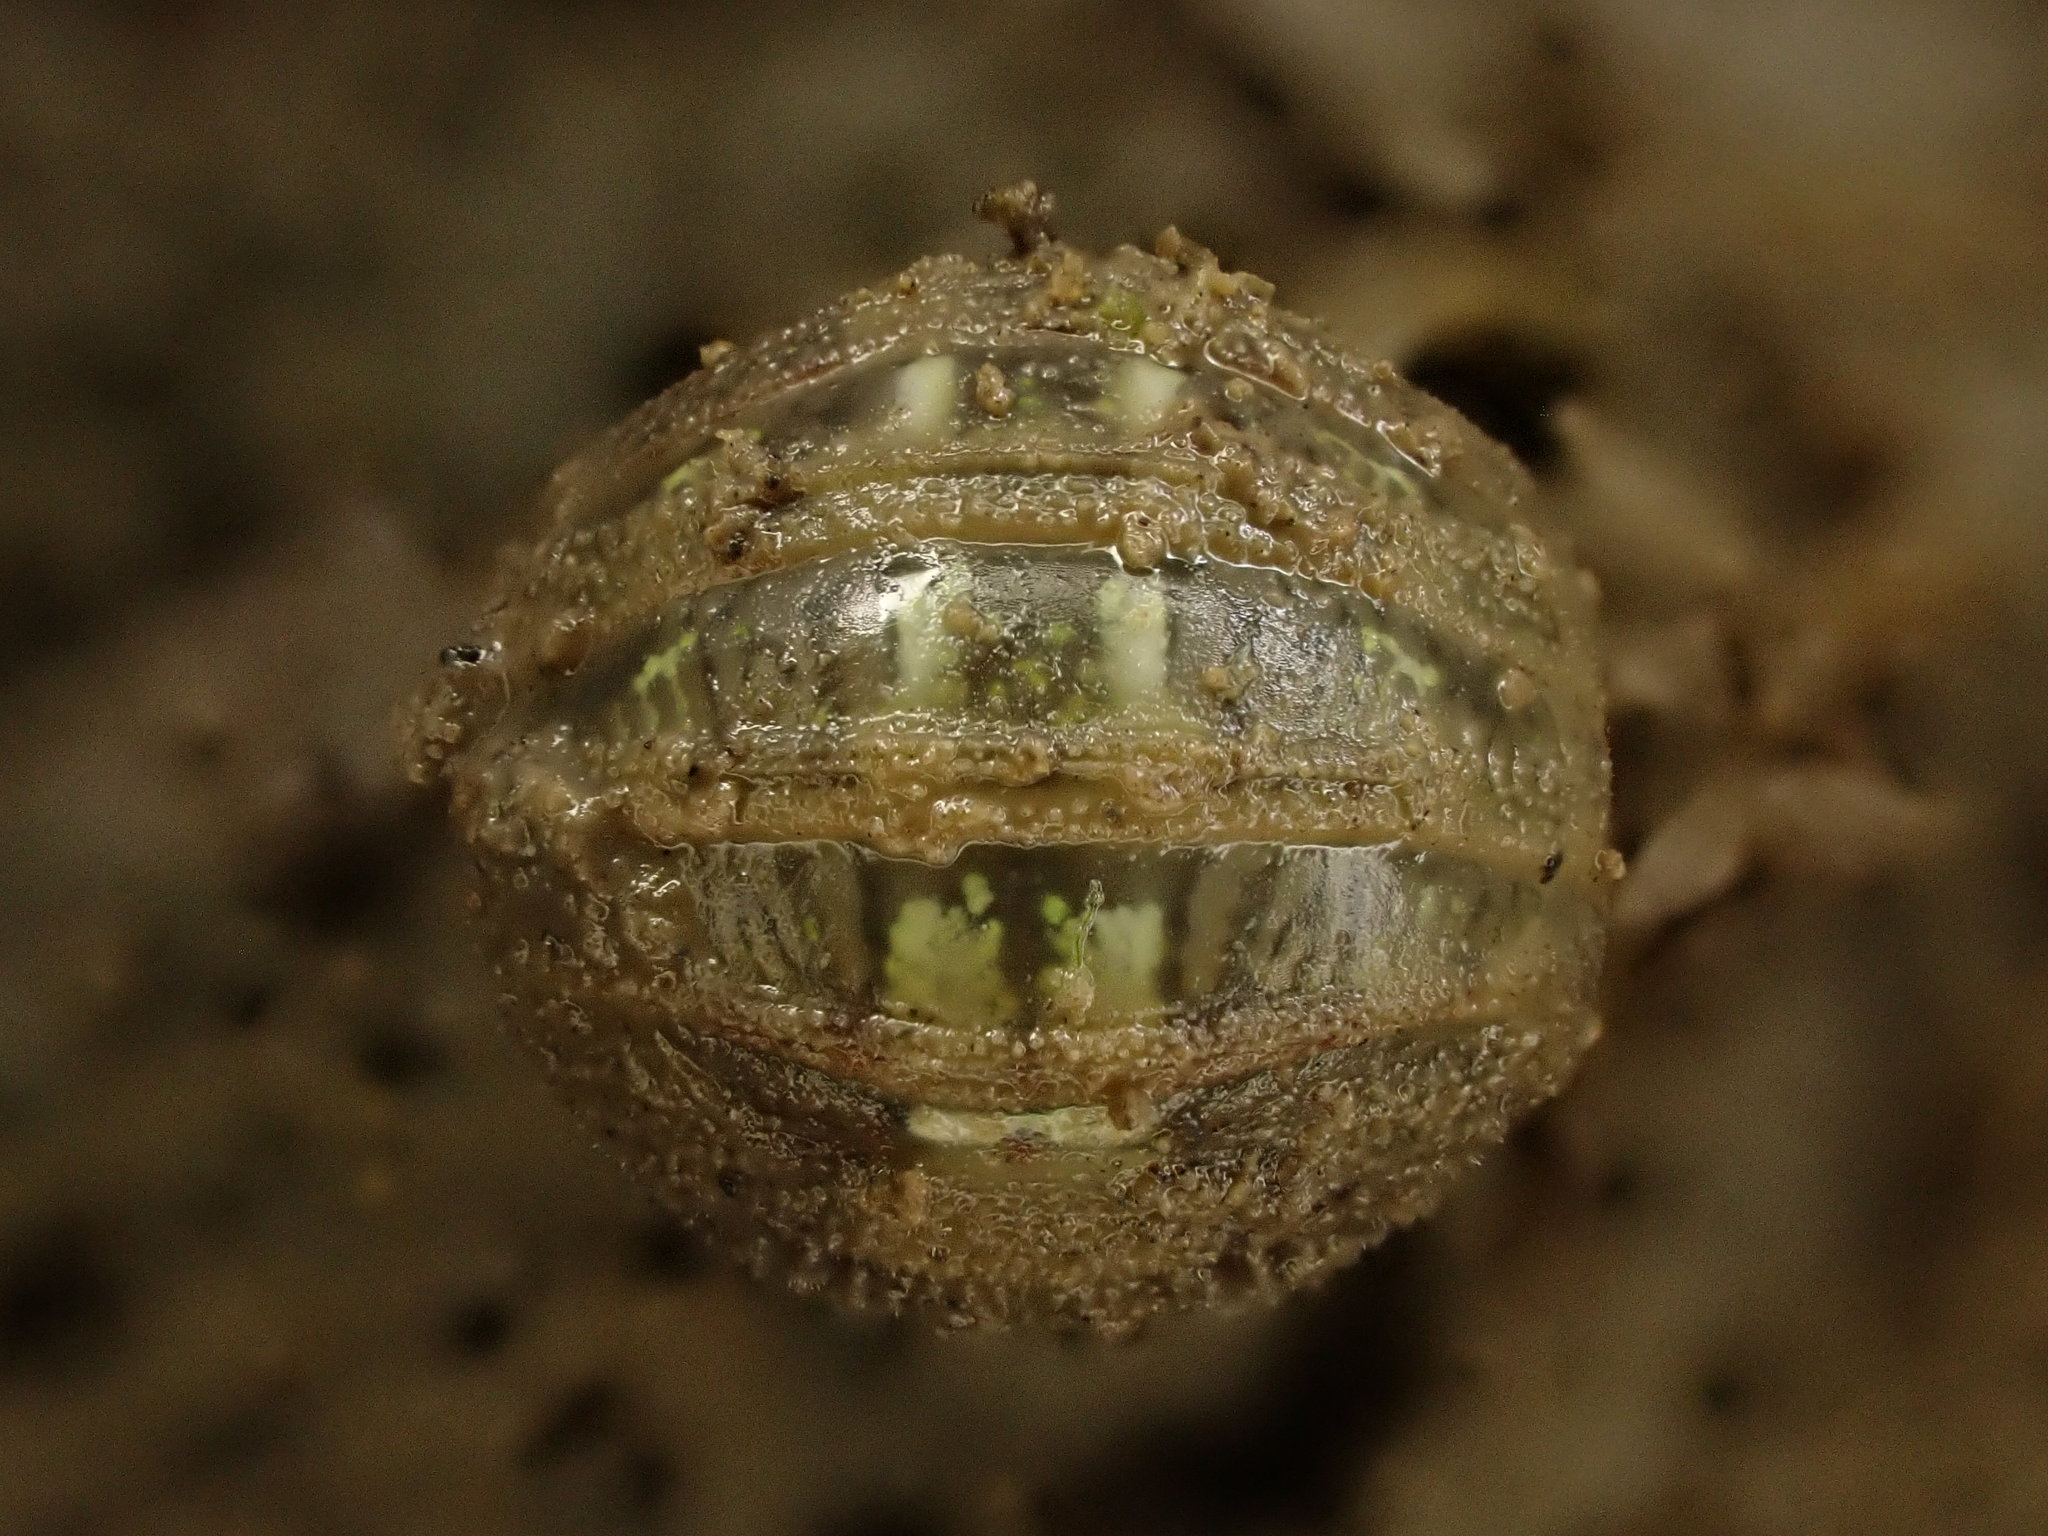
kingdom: Animalia
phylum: Arthropoda
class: Malacostraca
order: Isopoda
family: Sphaeromatidae
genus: Sphaeroma
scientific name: Sphaeroma quoianum
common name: Isopod
